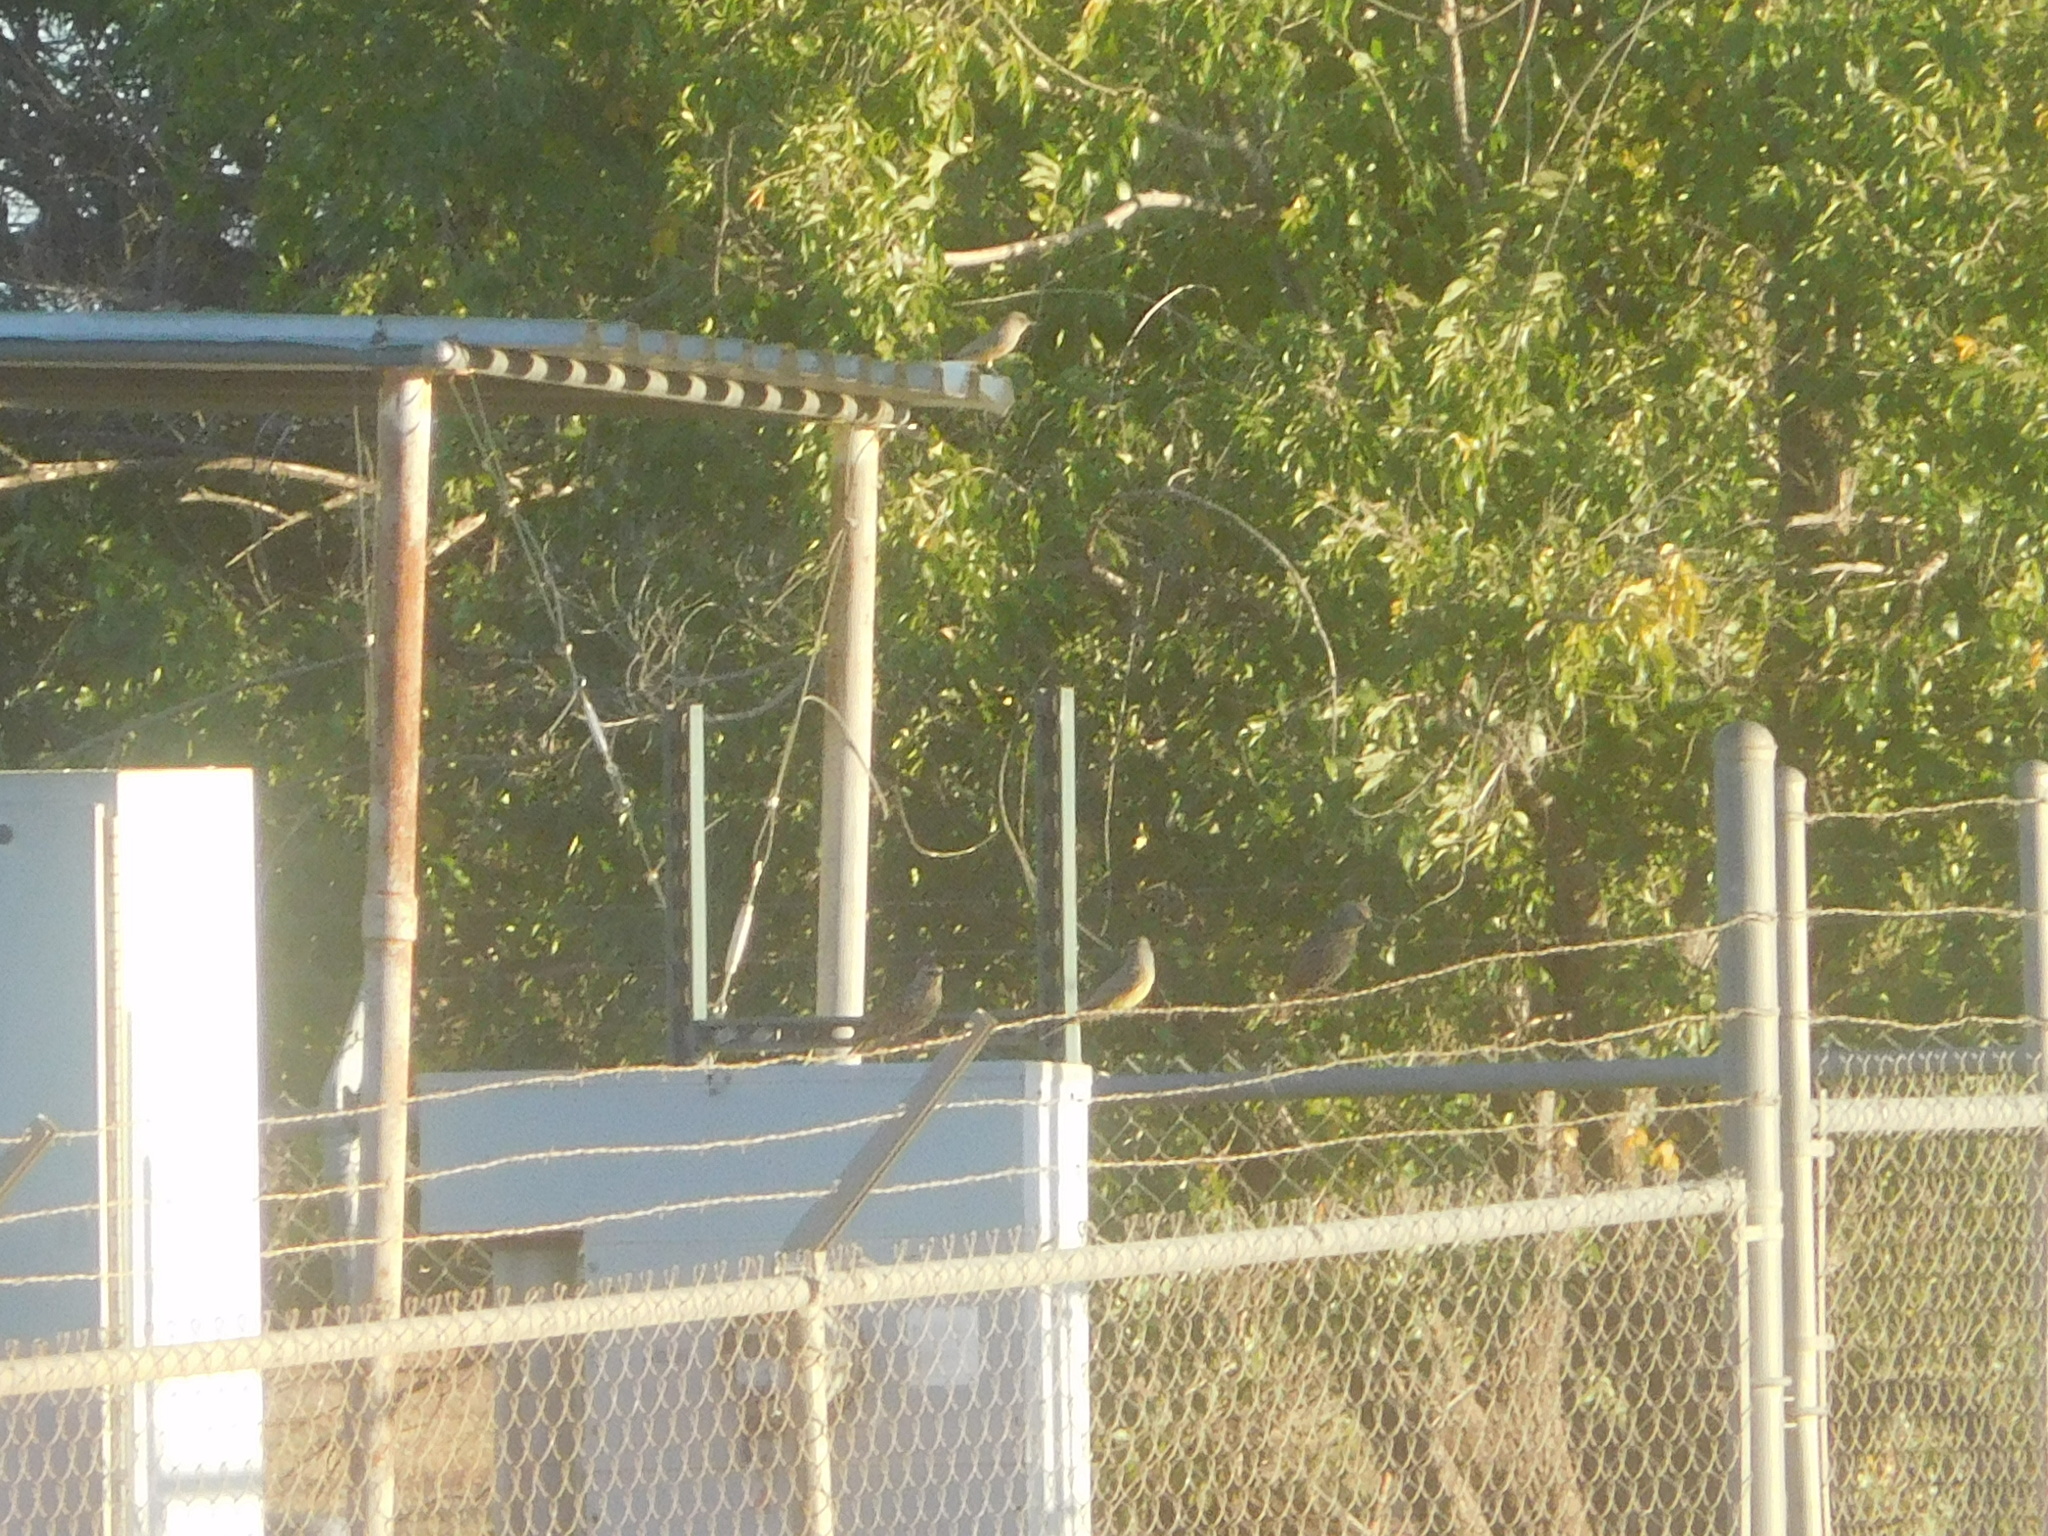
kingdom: Animalia
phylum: Chordata
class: Aves
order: Passeriformes
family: Sturnidae
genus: Sturnus
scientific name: Sturnus vulgaris
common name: Common starling
